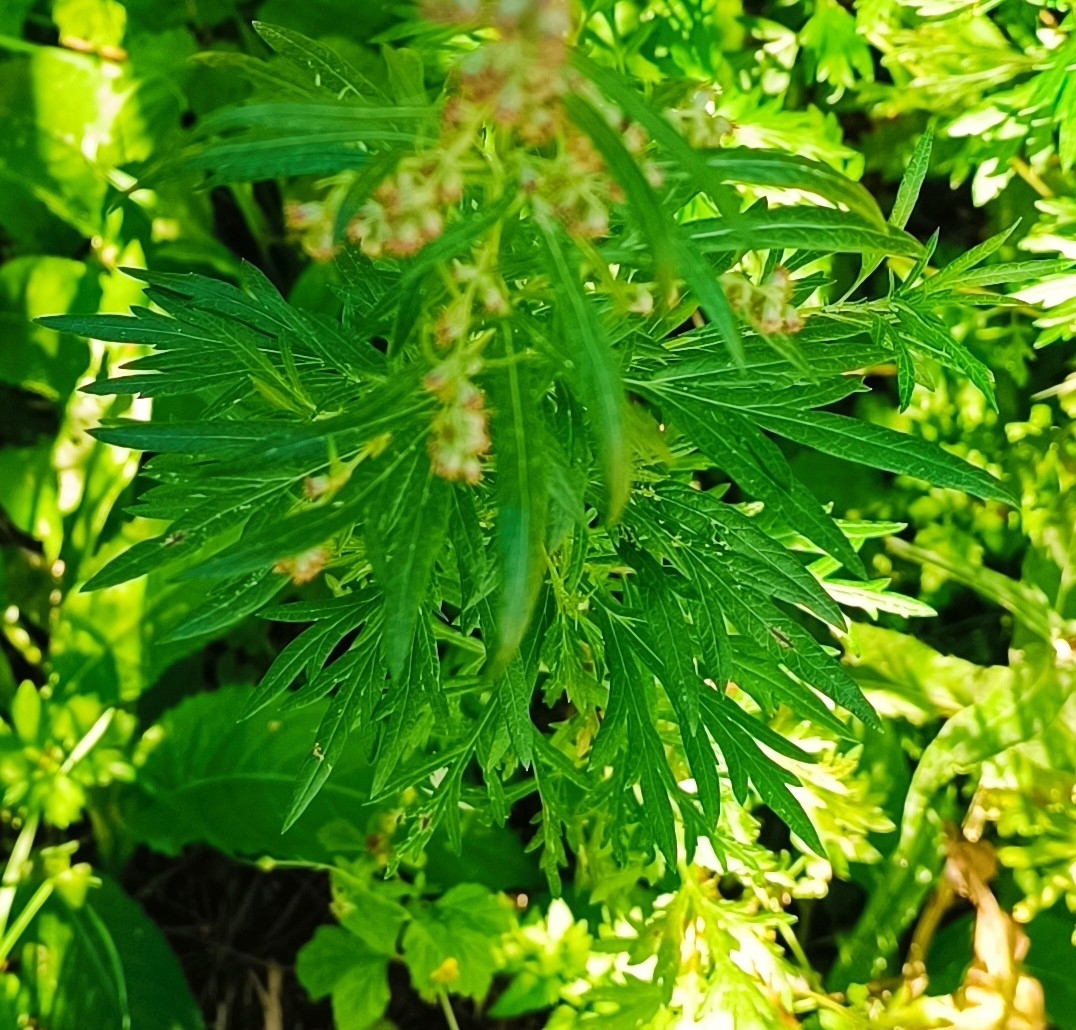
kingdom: Plantae
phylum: Tracheophyta
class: Magnoliopsida
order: Asterales
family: Asteraceae
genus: Artemisia
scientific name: Artemisia vulgaris
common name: Mugwort
